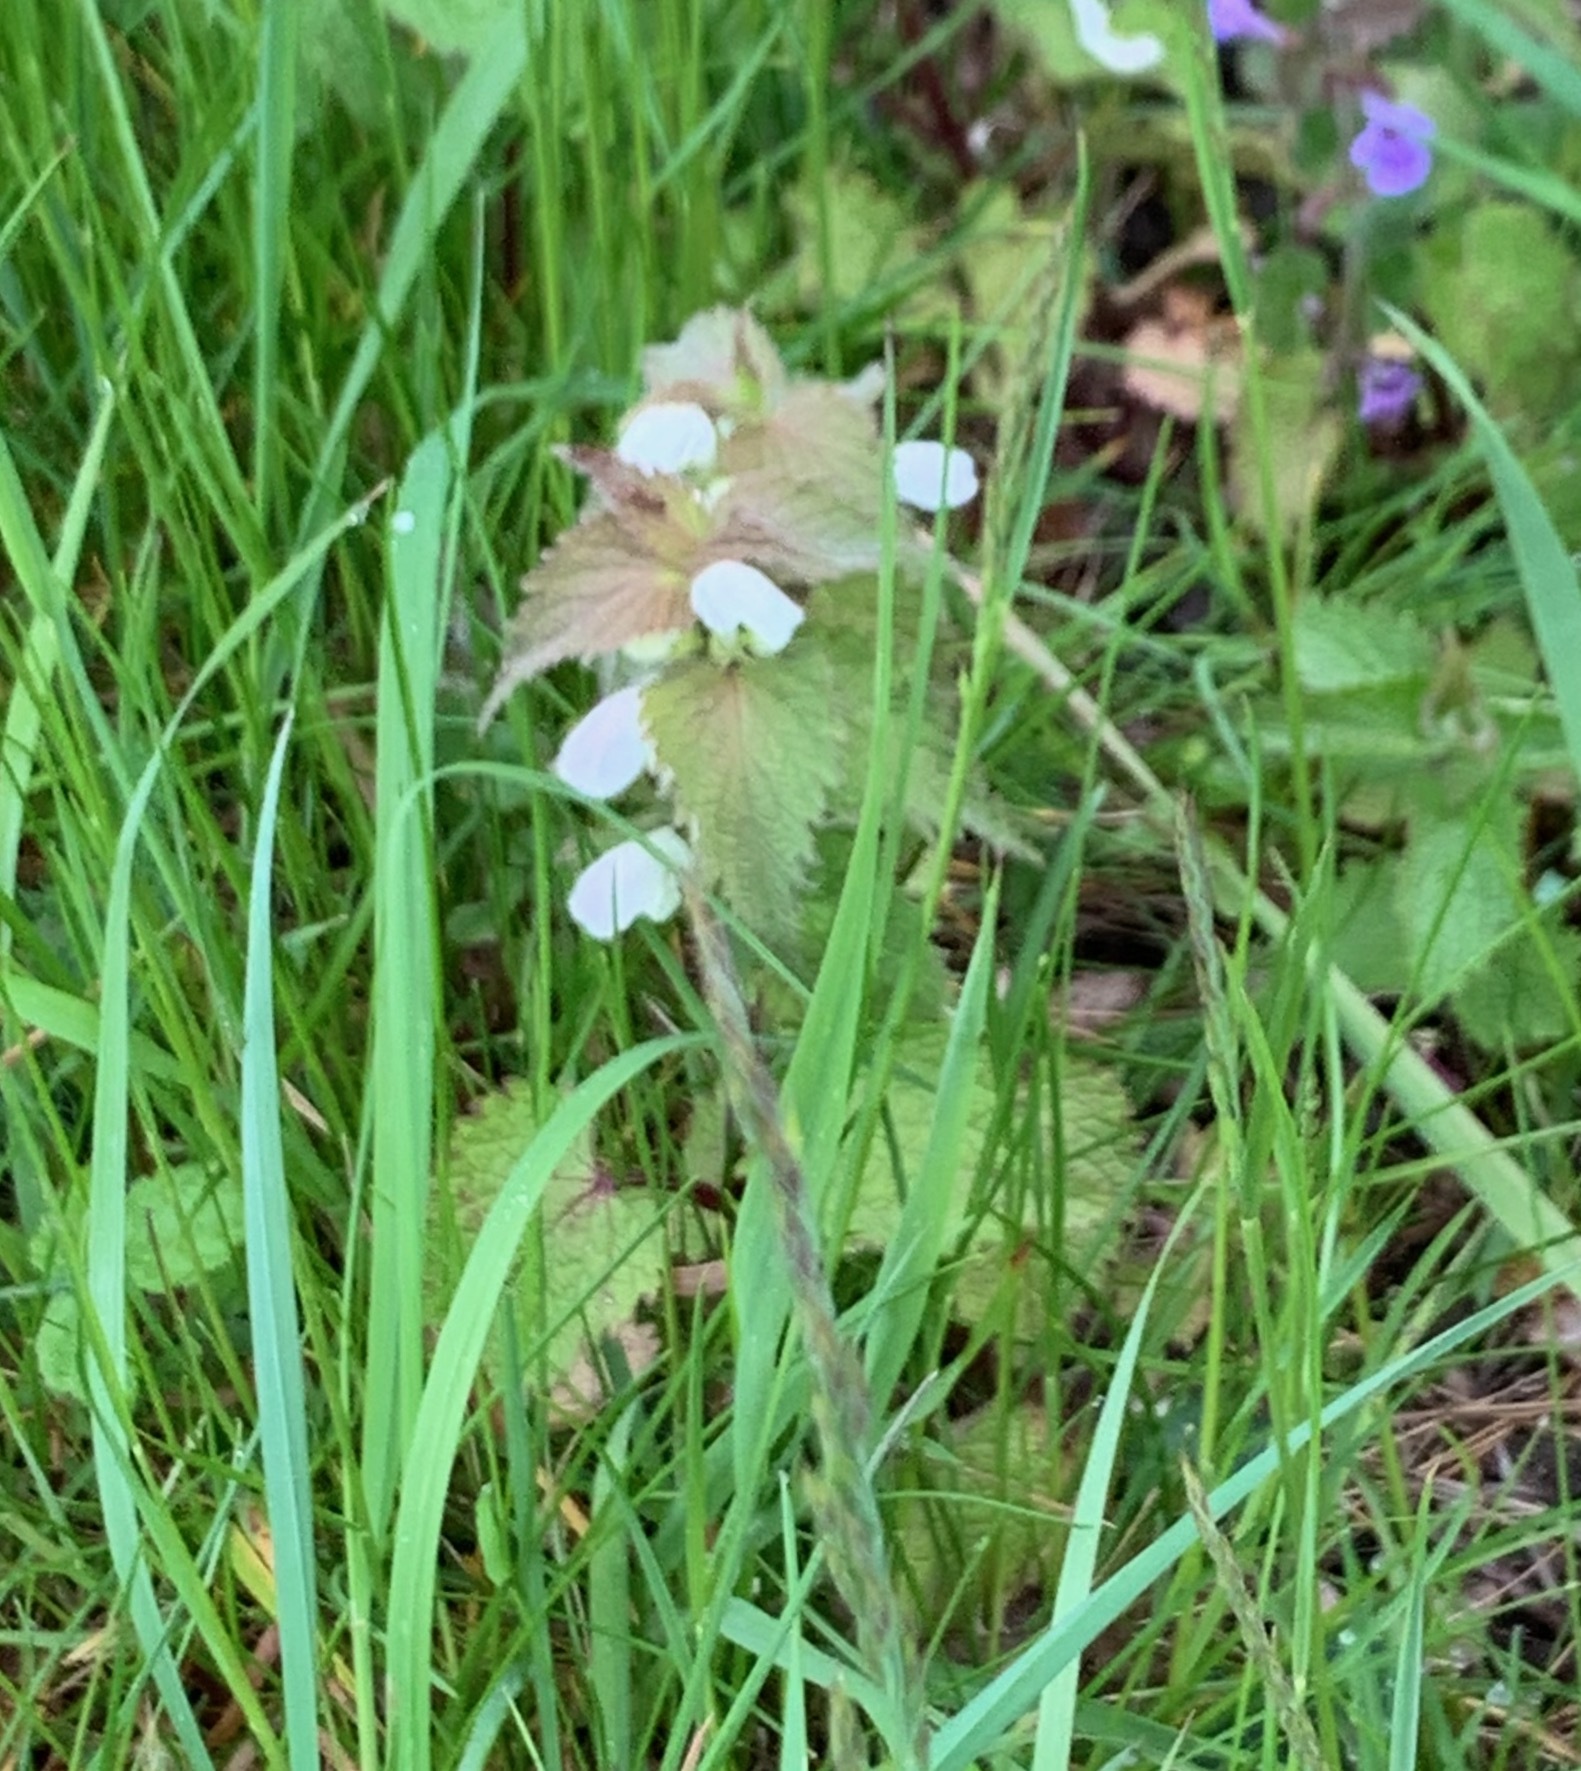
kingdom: Plantae
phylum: Tracheophyta
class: Magnoliopsida
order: Lamiales
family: Lamiaceae
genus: Lamium
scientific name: Lamium album
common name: White dead-nettle
